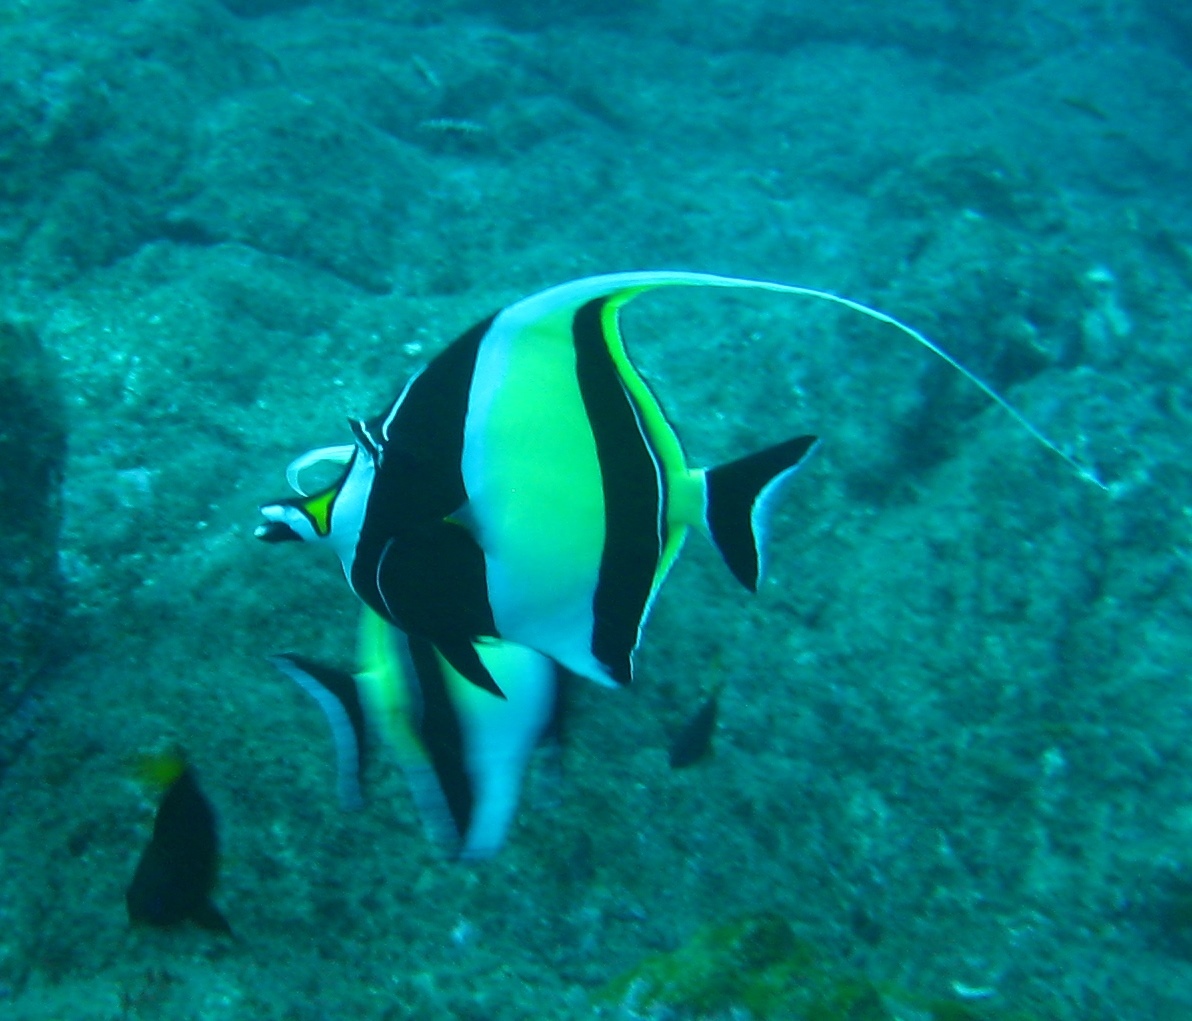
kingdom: Animalia
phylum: Chordata
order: Perciformes
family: Zanclidae
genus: Zanclus
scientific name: Zanclus cornutus
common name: Moorish idol
